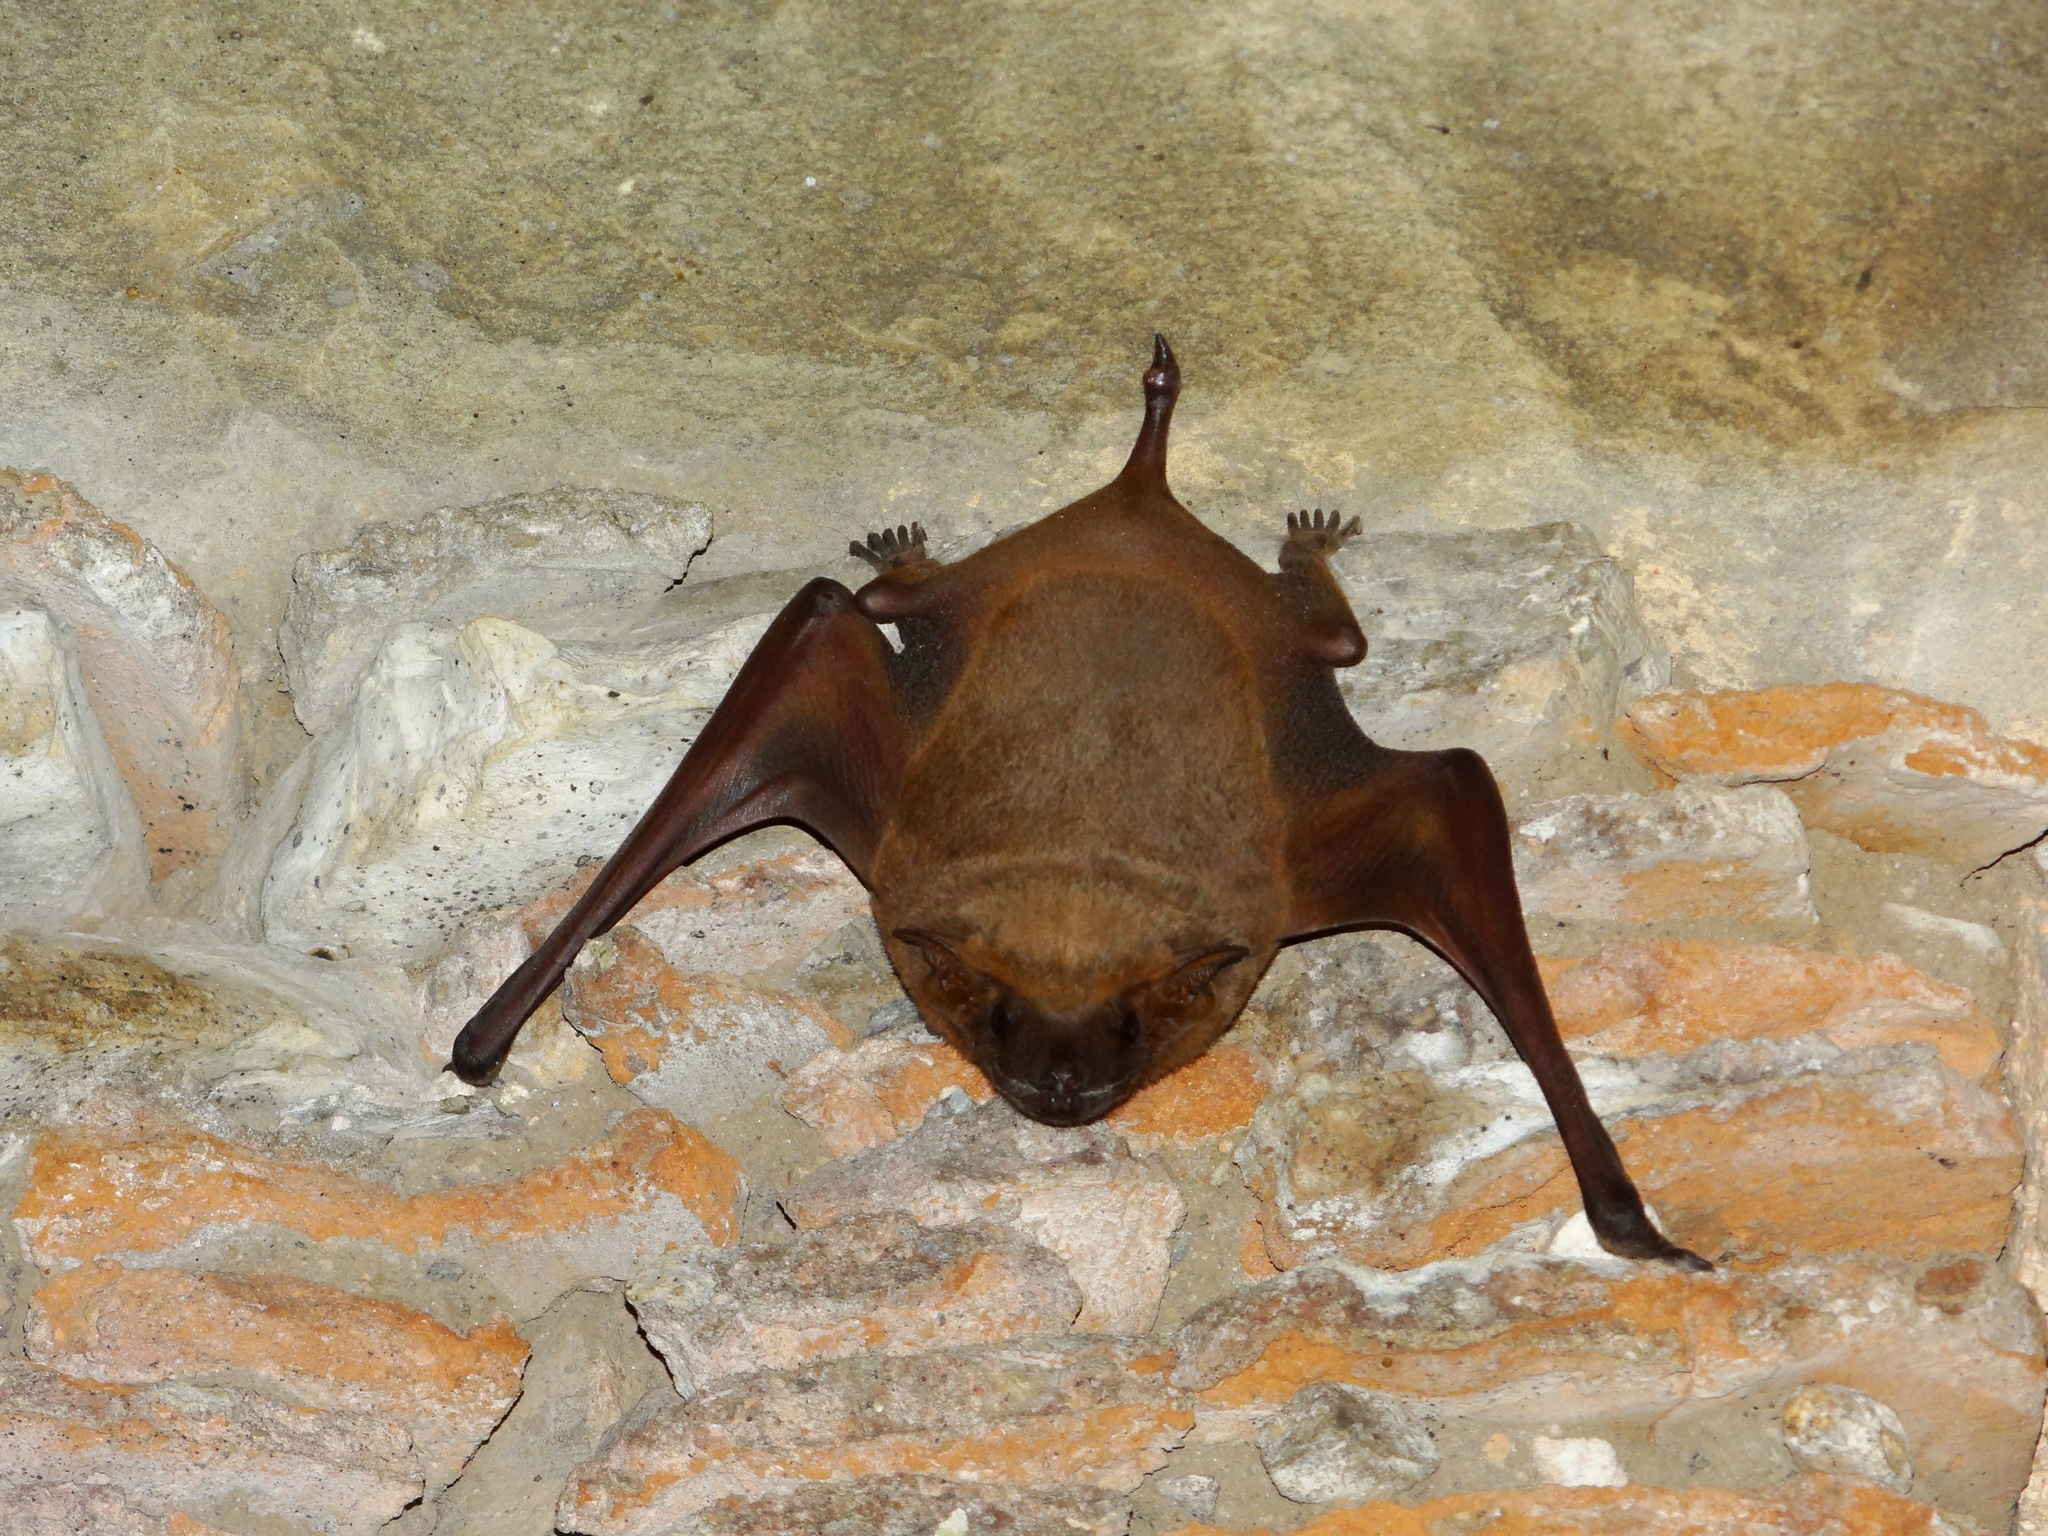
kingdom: Animalia
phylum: Chordata
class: Mammalia
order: Chiroptera
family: Emballonuridae
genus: Taphozous
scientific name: Taphozous nudiventris
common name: Naked-rumped tomb bat
